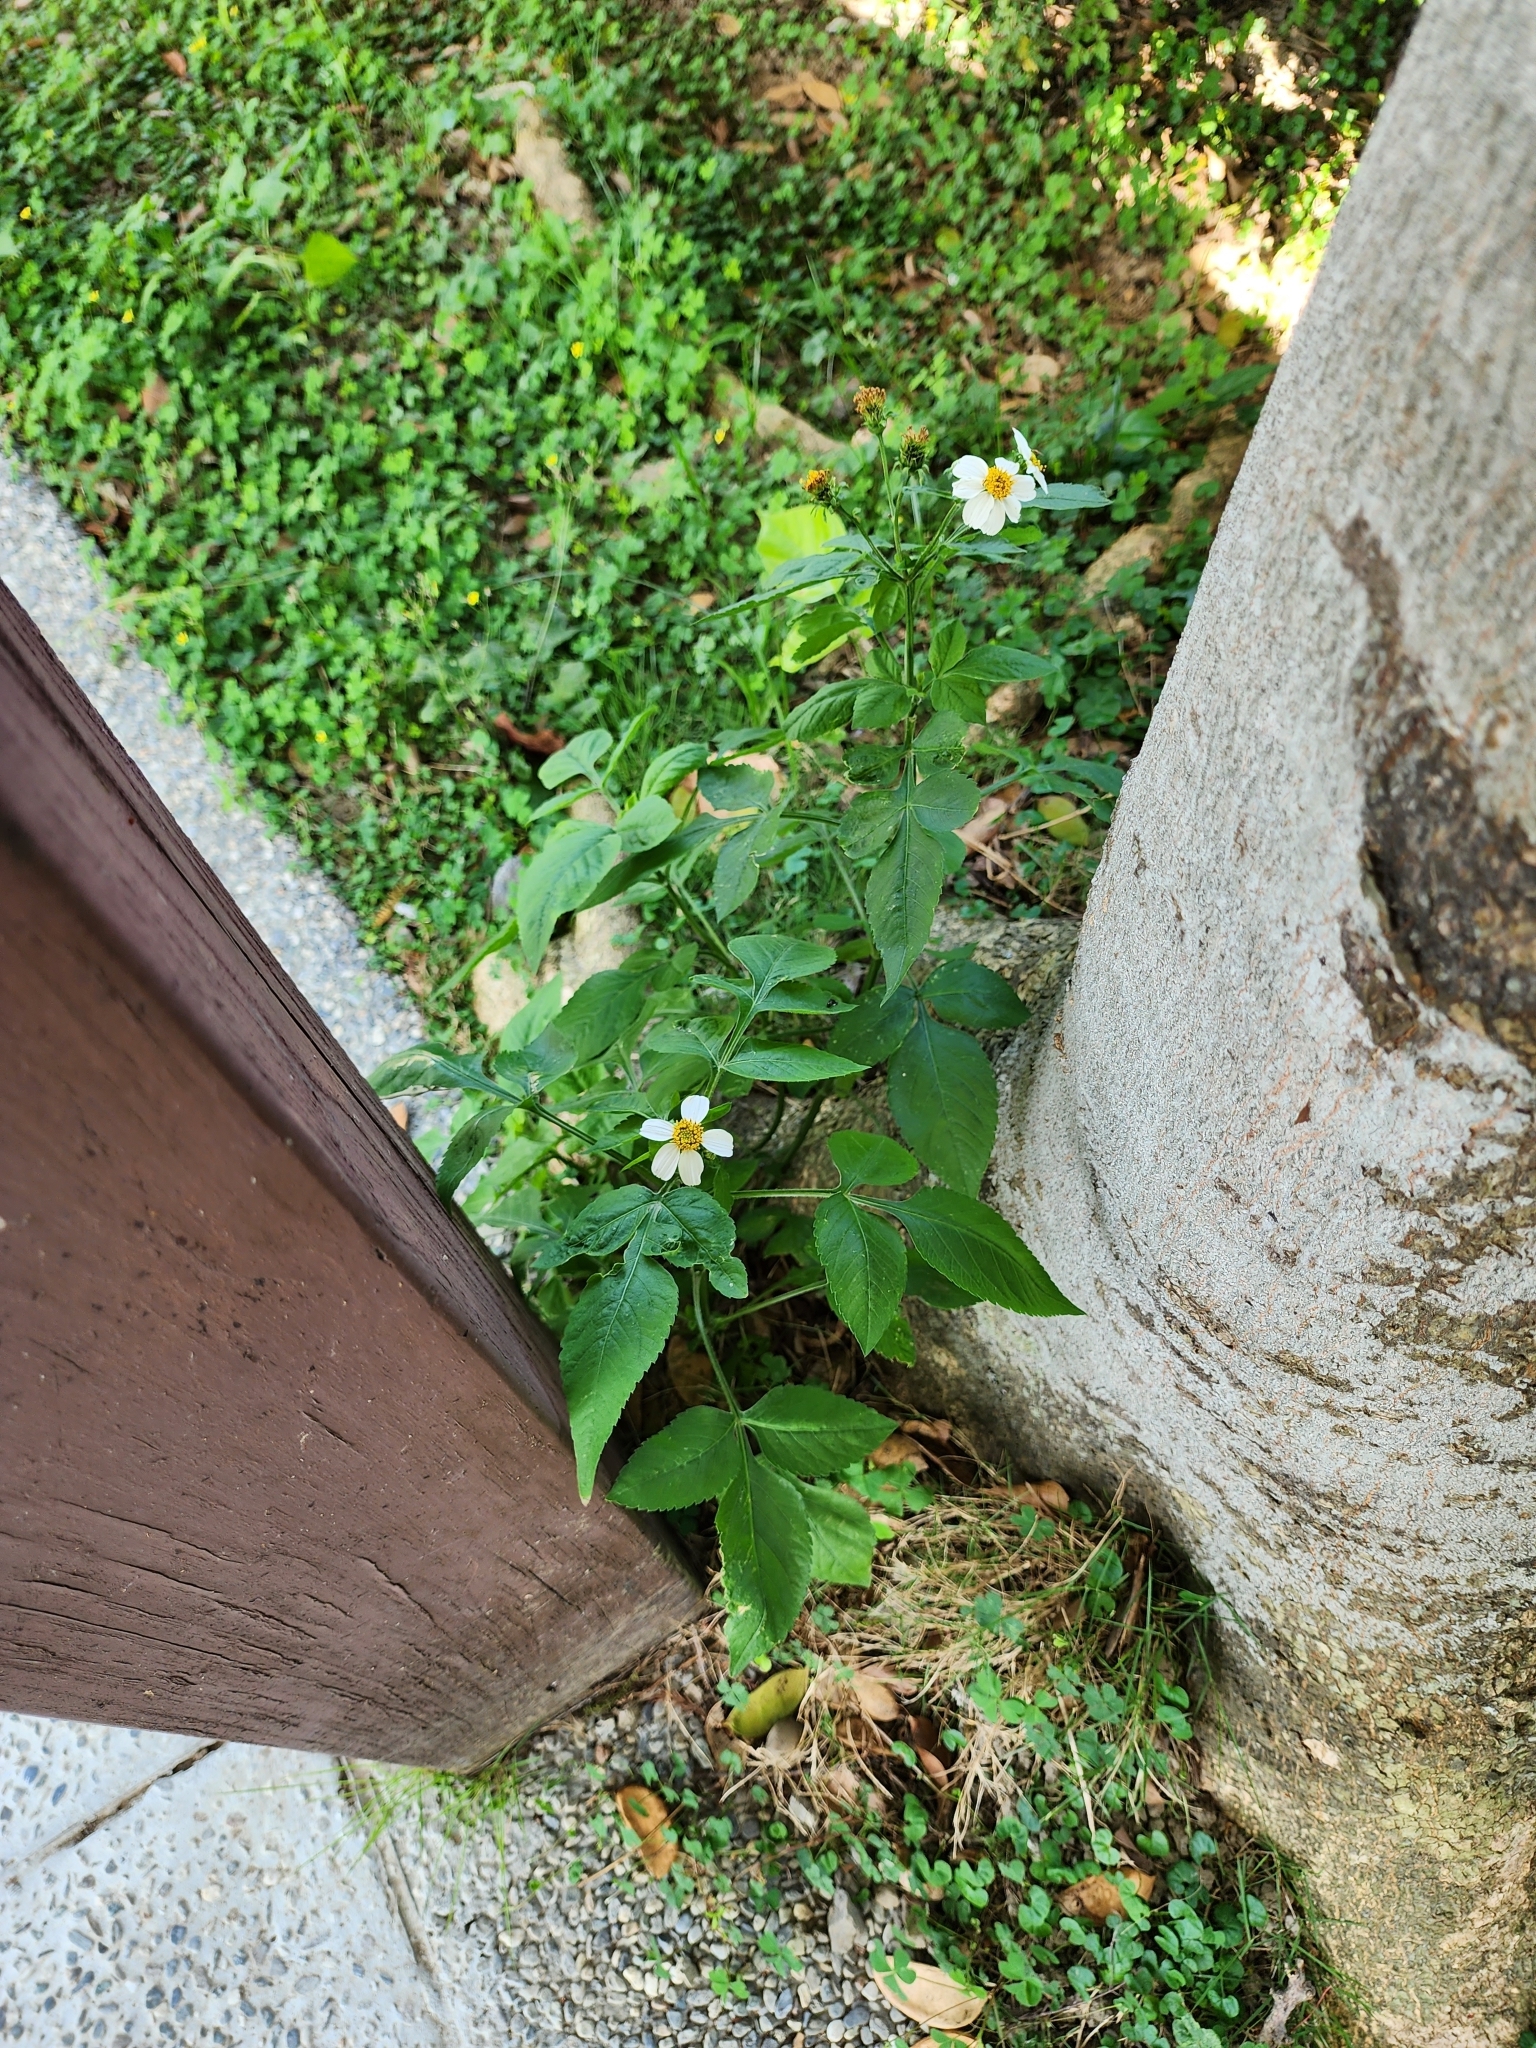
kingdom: Plantae
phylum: Tracheophyta
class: Magnoliopsida
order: Asterales
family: Asteraceae
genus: Bidens
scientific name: Bidens alba
